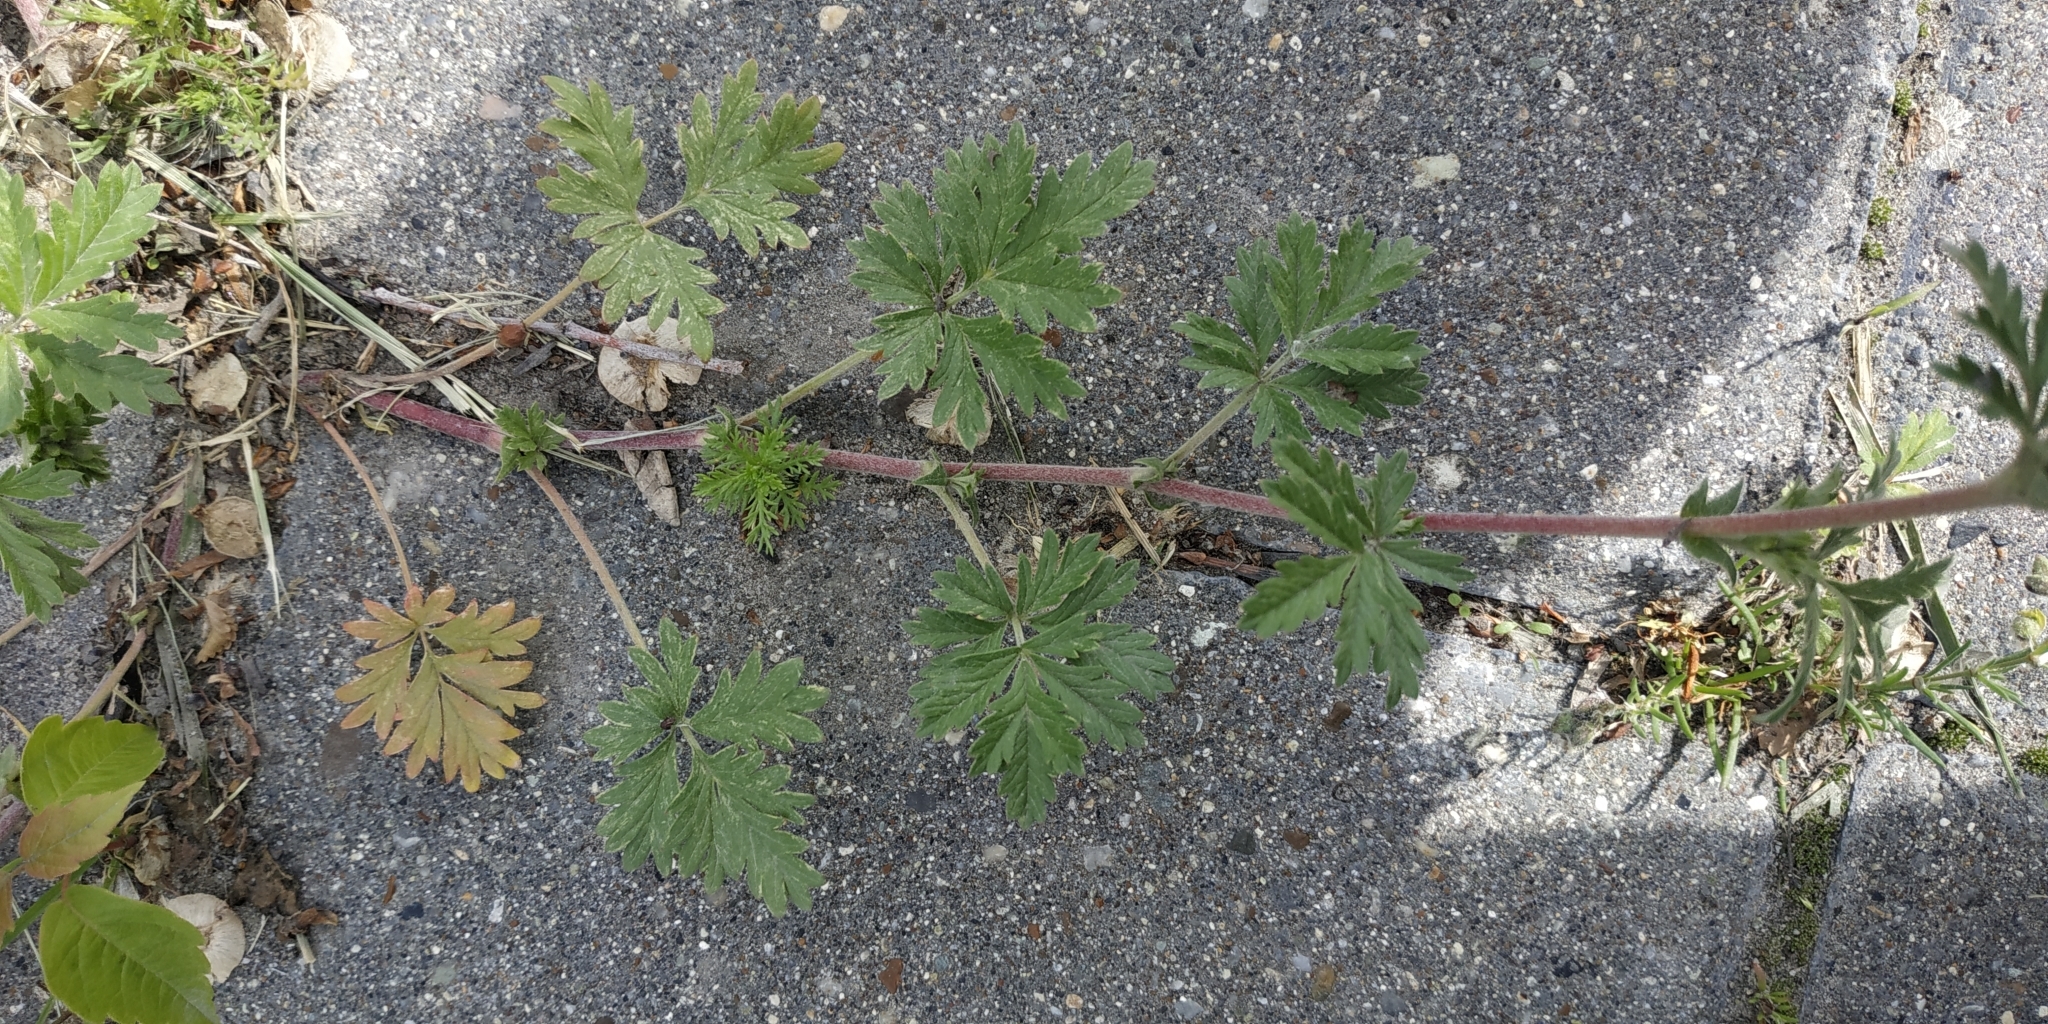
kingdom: Plantae
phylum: Tracheophyta
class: Magnoliopsida
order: Rosales
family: Rosaceae
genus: Potentilla
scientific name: Potentilla tobolensis
